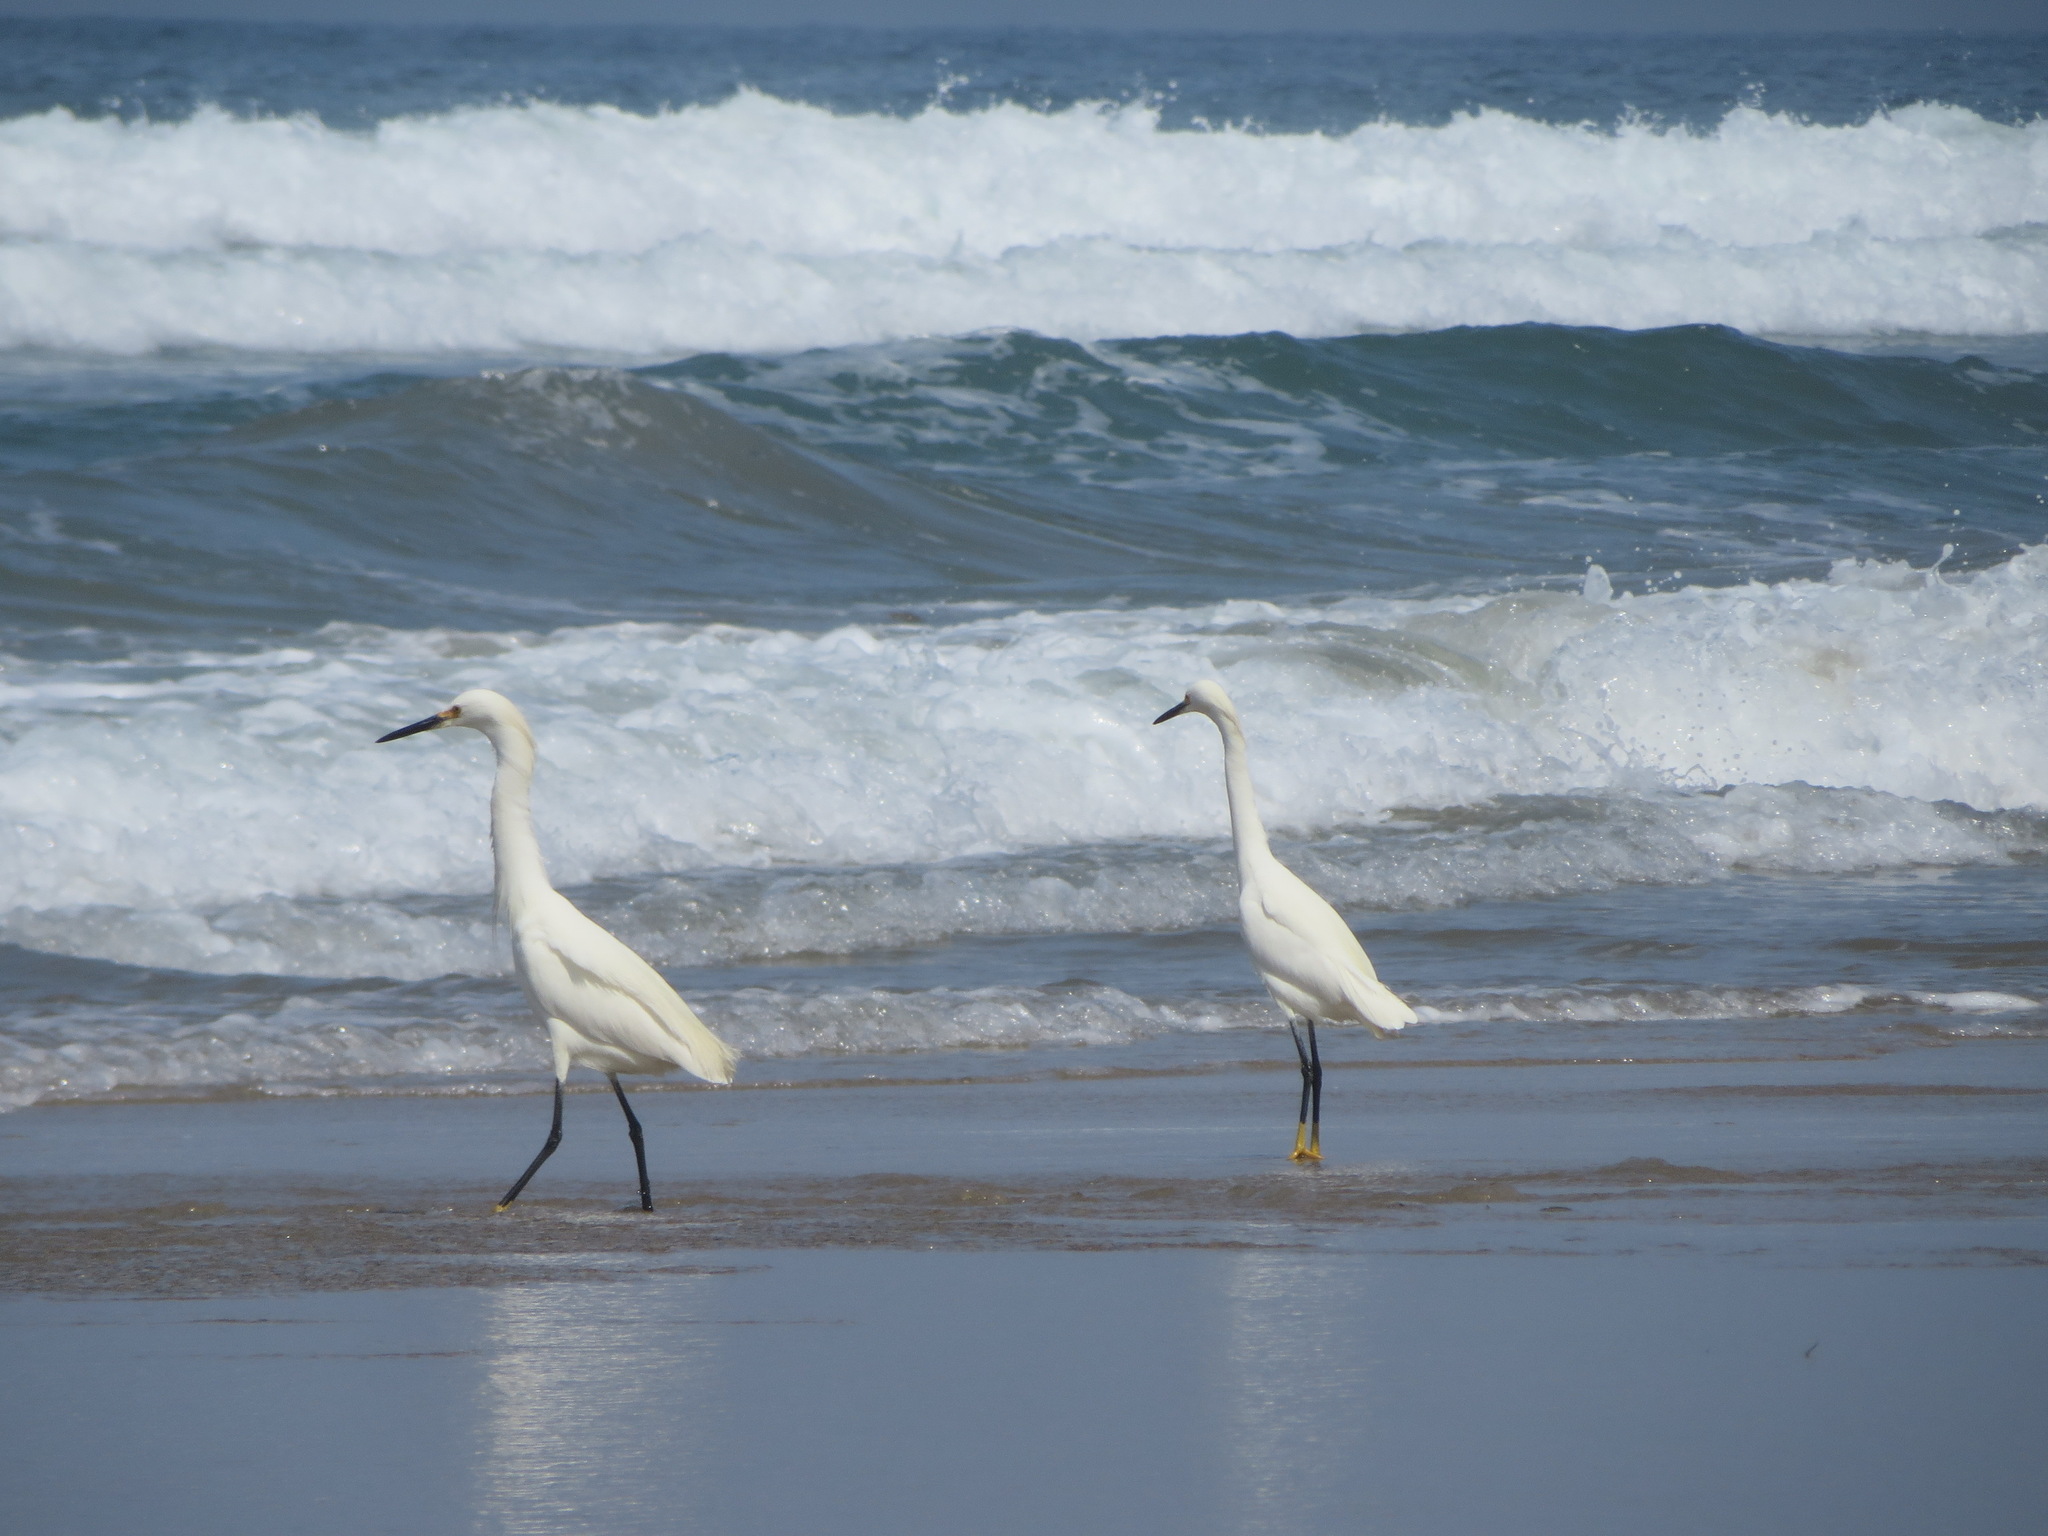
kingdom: Animalia
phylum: Chordata
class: Aves
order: Pelecaniformes
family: Ardeidae
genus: Egretta
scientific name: Egretta thula
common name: Snowy egret
